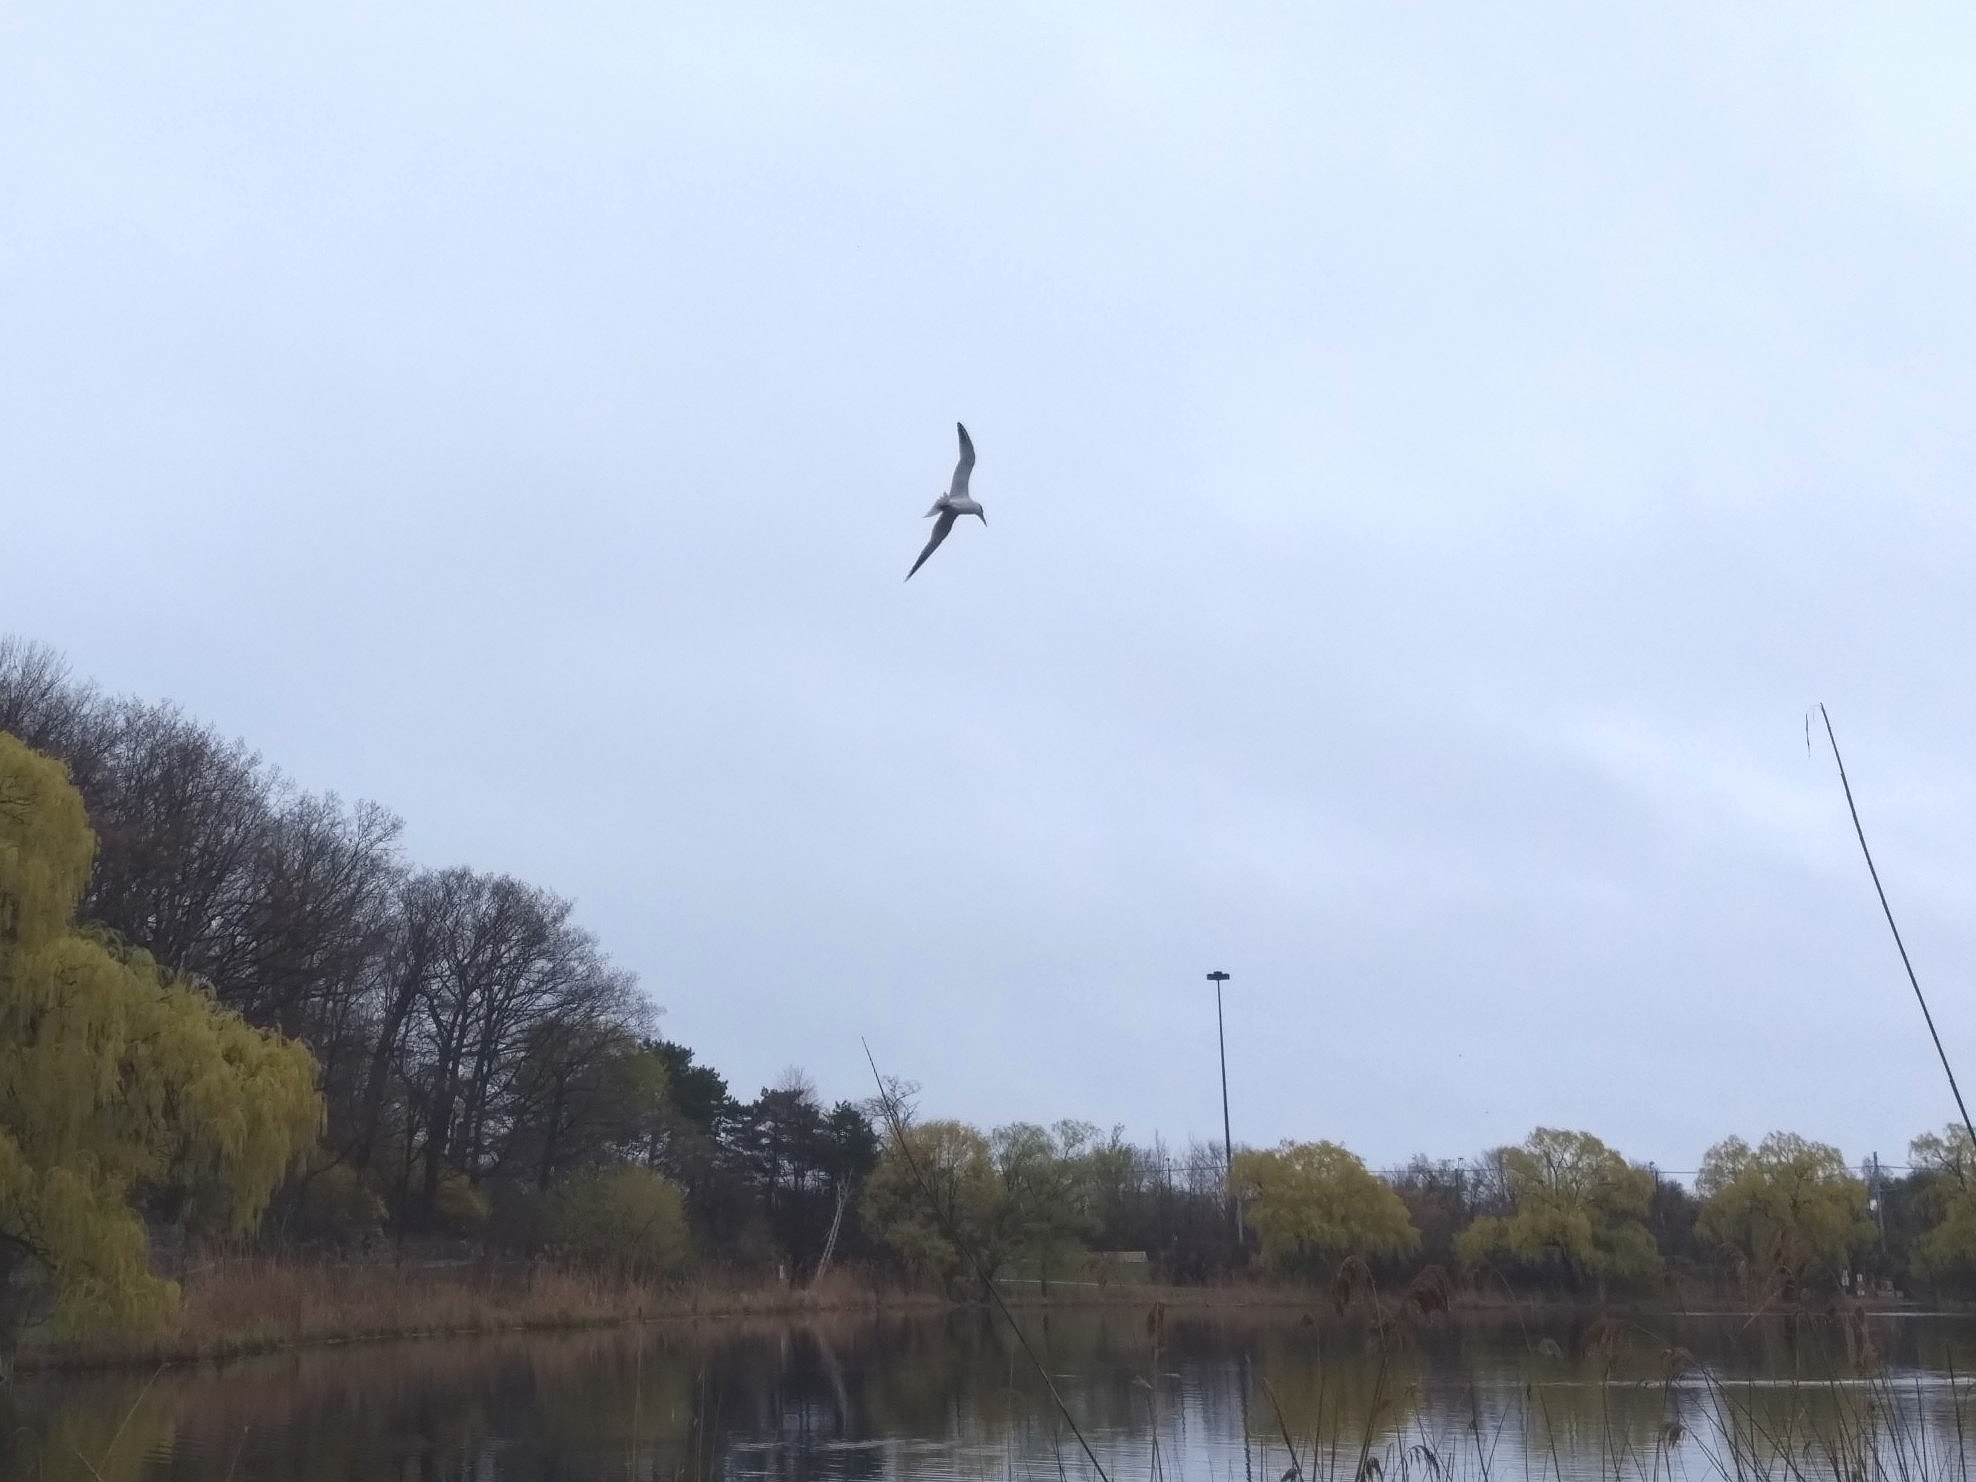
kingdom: Animalia
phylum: Chordata
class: Aves
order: Charadriiformes
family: Laridae
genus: Hydroprogne
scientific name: Hydroprogne caspia
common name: Caspian tern
